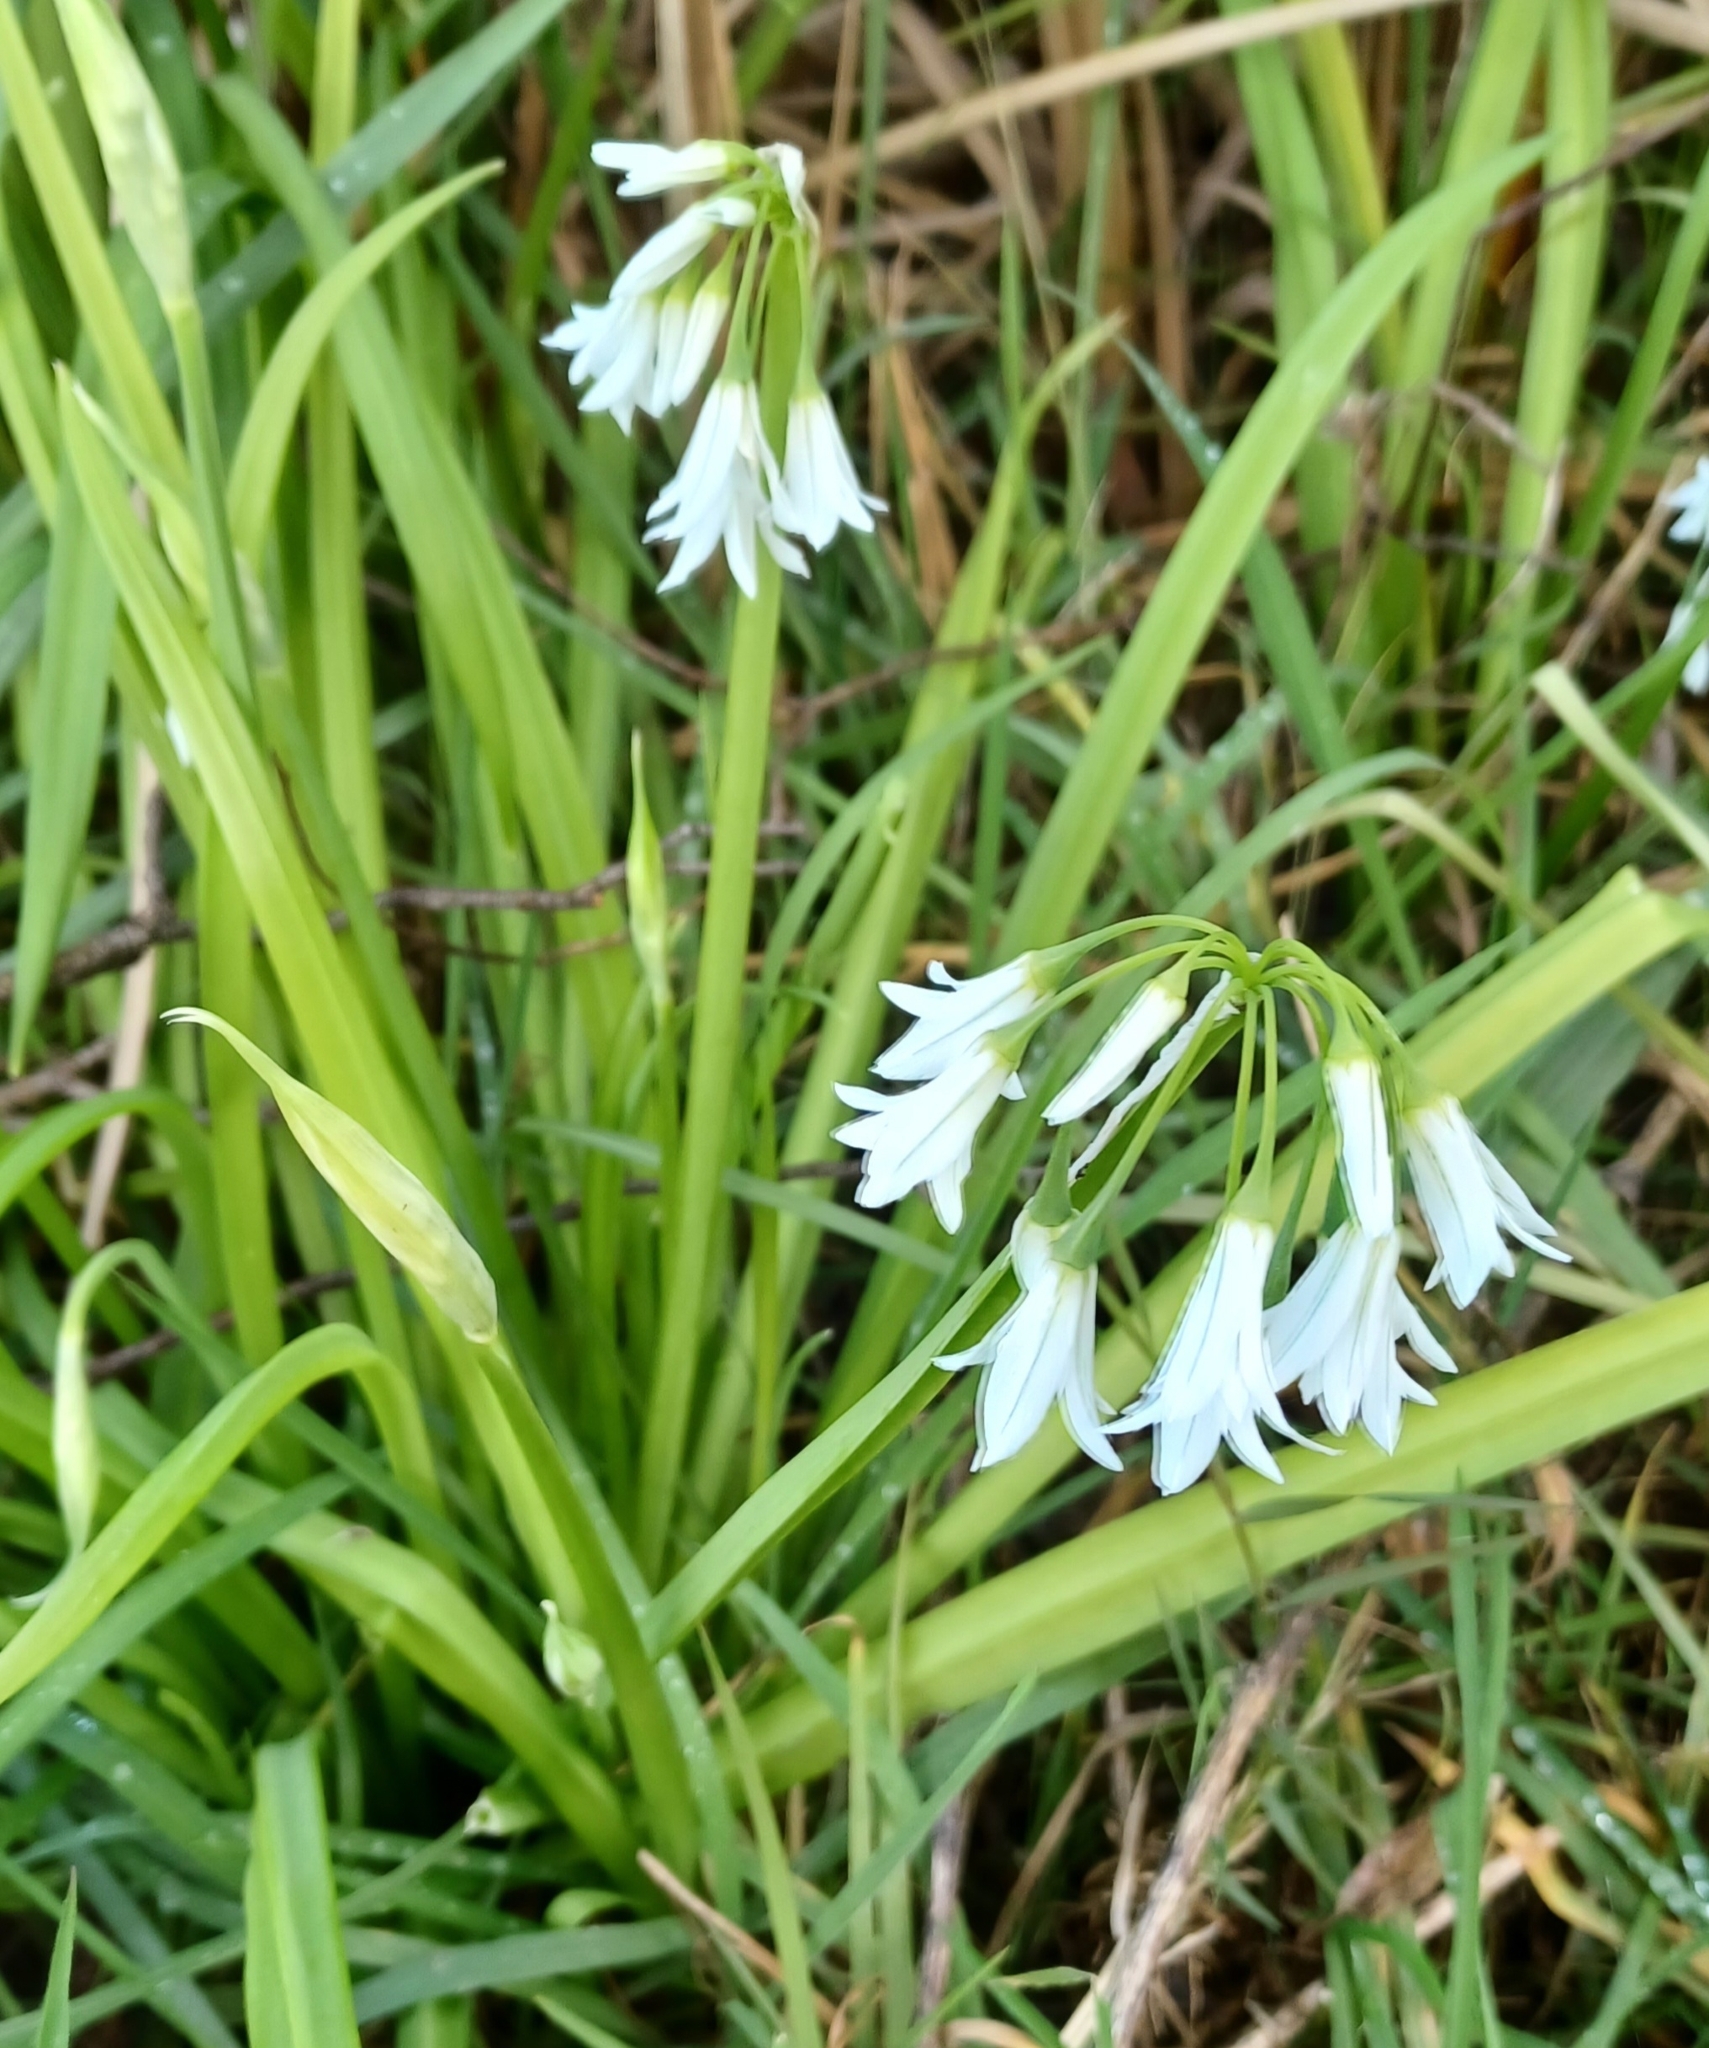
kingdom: Plantae
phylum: Tracheophyta
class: Liliopsida
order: Asparagales
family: Amaryllidaceae
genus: Allium
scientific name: Allium triquetrum
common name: Three-cornered garlic
